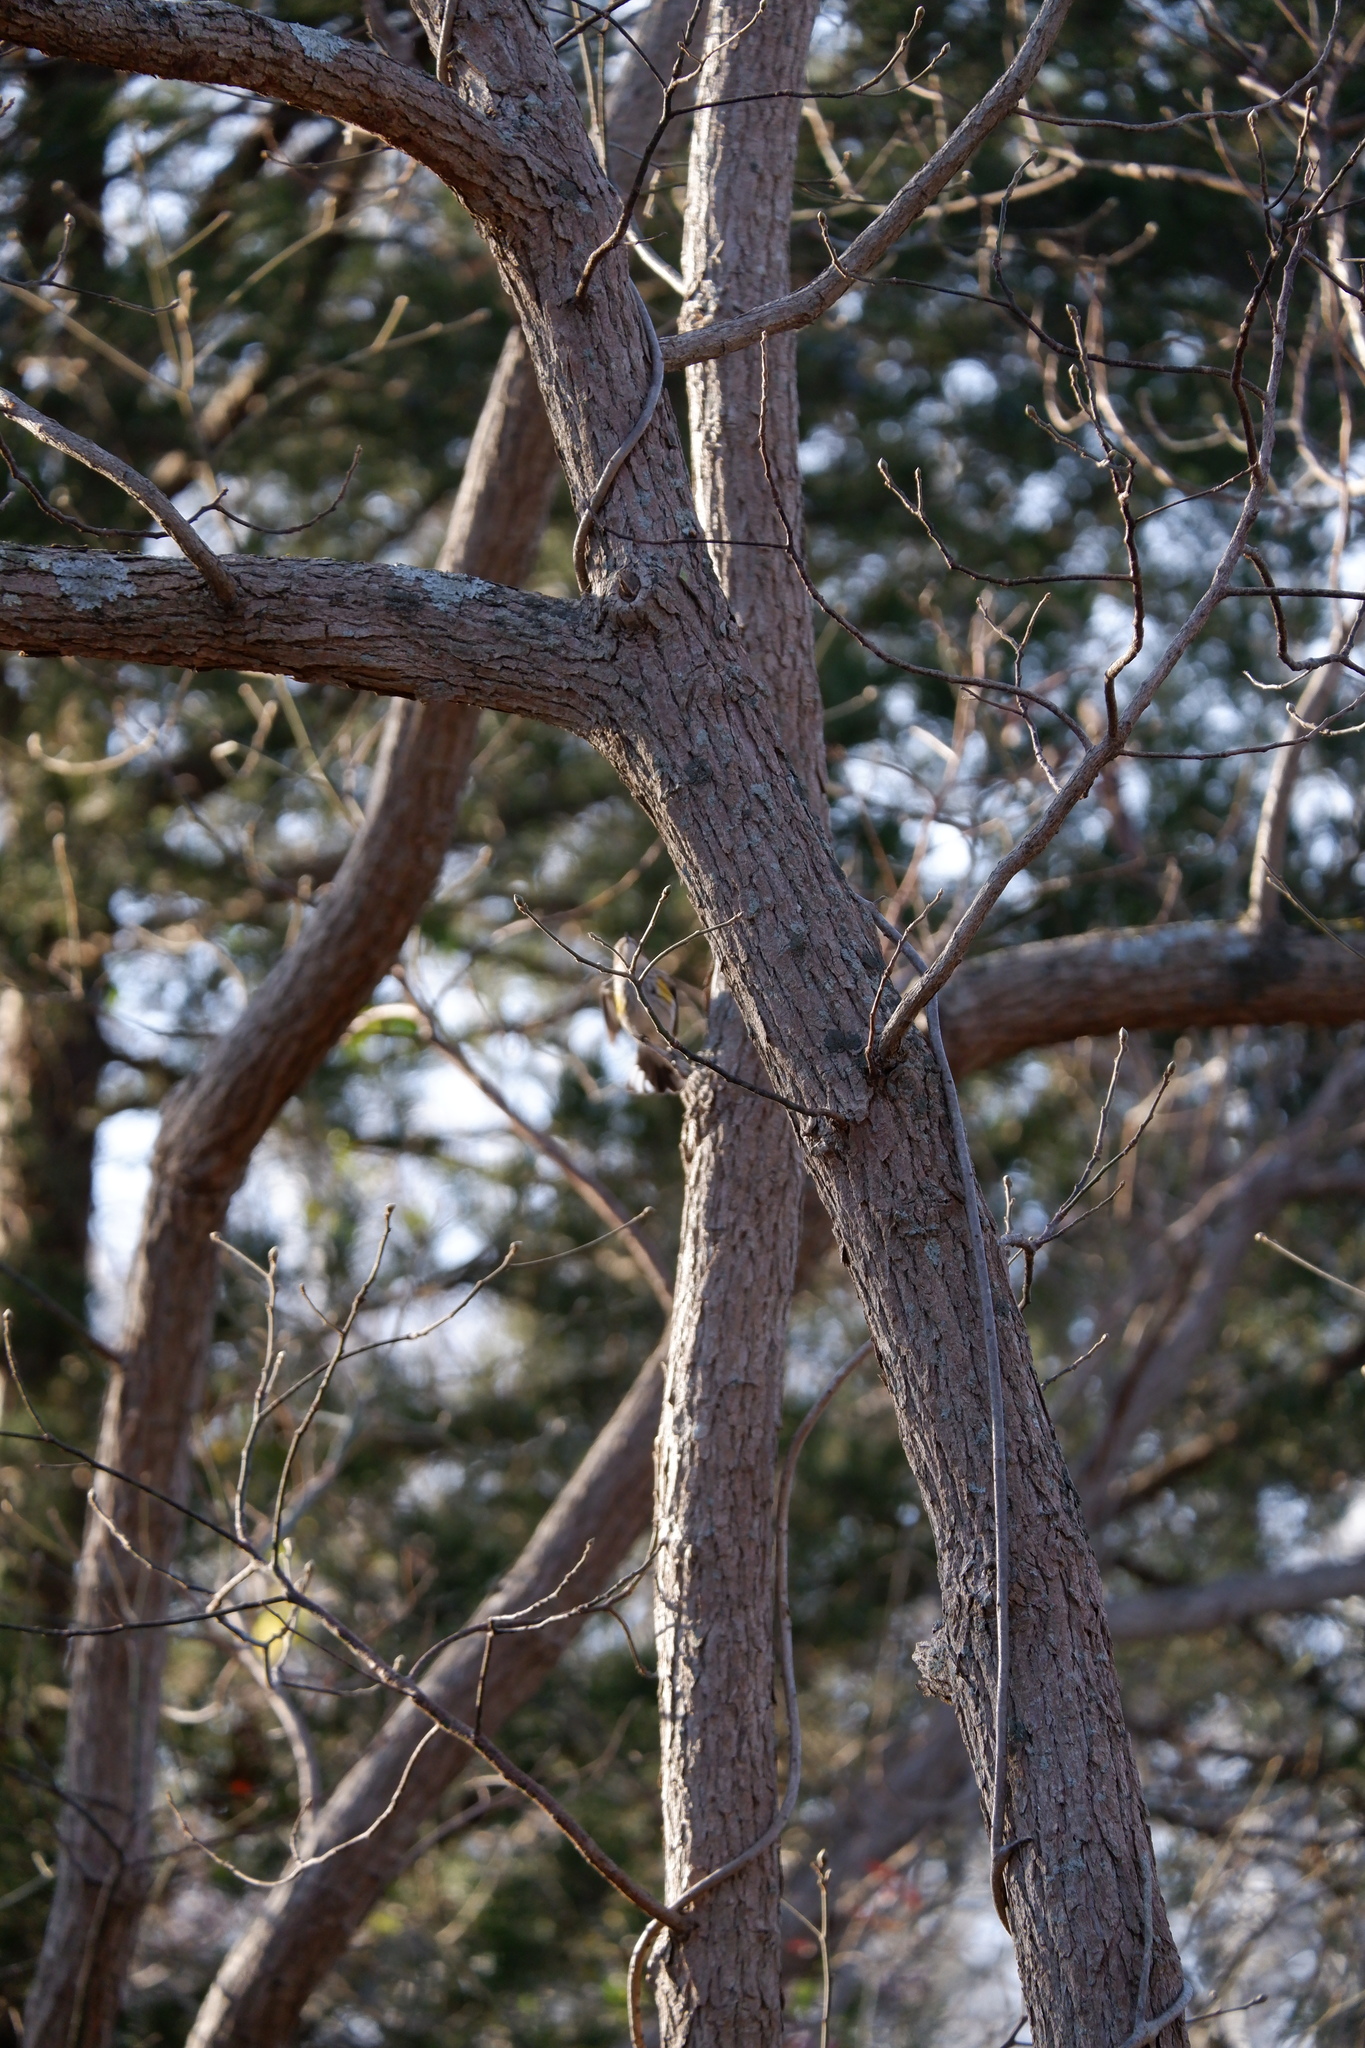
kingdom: Plantae
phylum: Tracheophyta
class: Magnoliopsida
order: Laurales
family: Lauraceae
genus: Sassafras
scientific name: Sassafras albidum
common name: Sassafras
